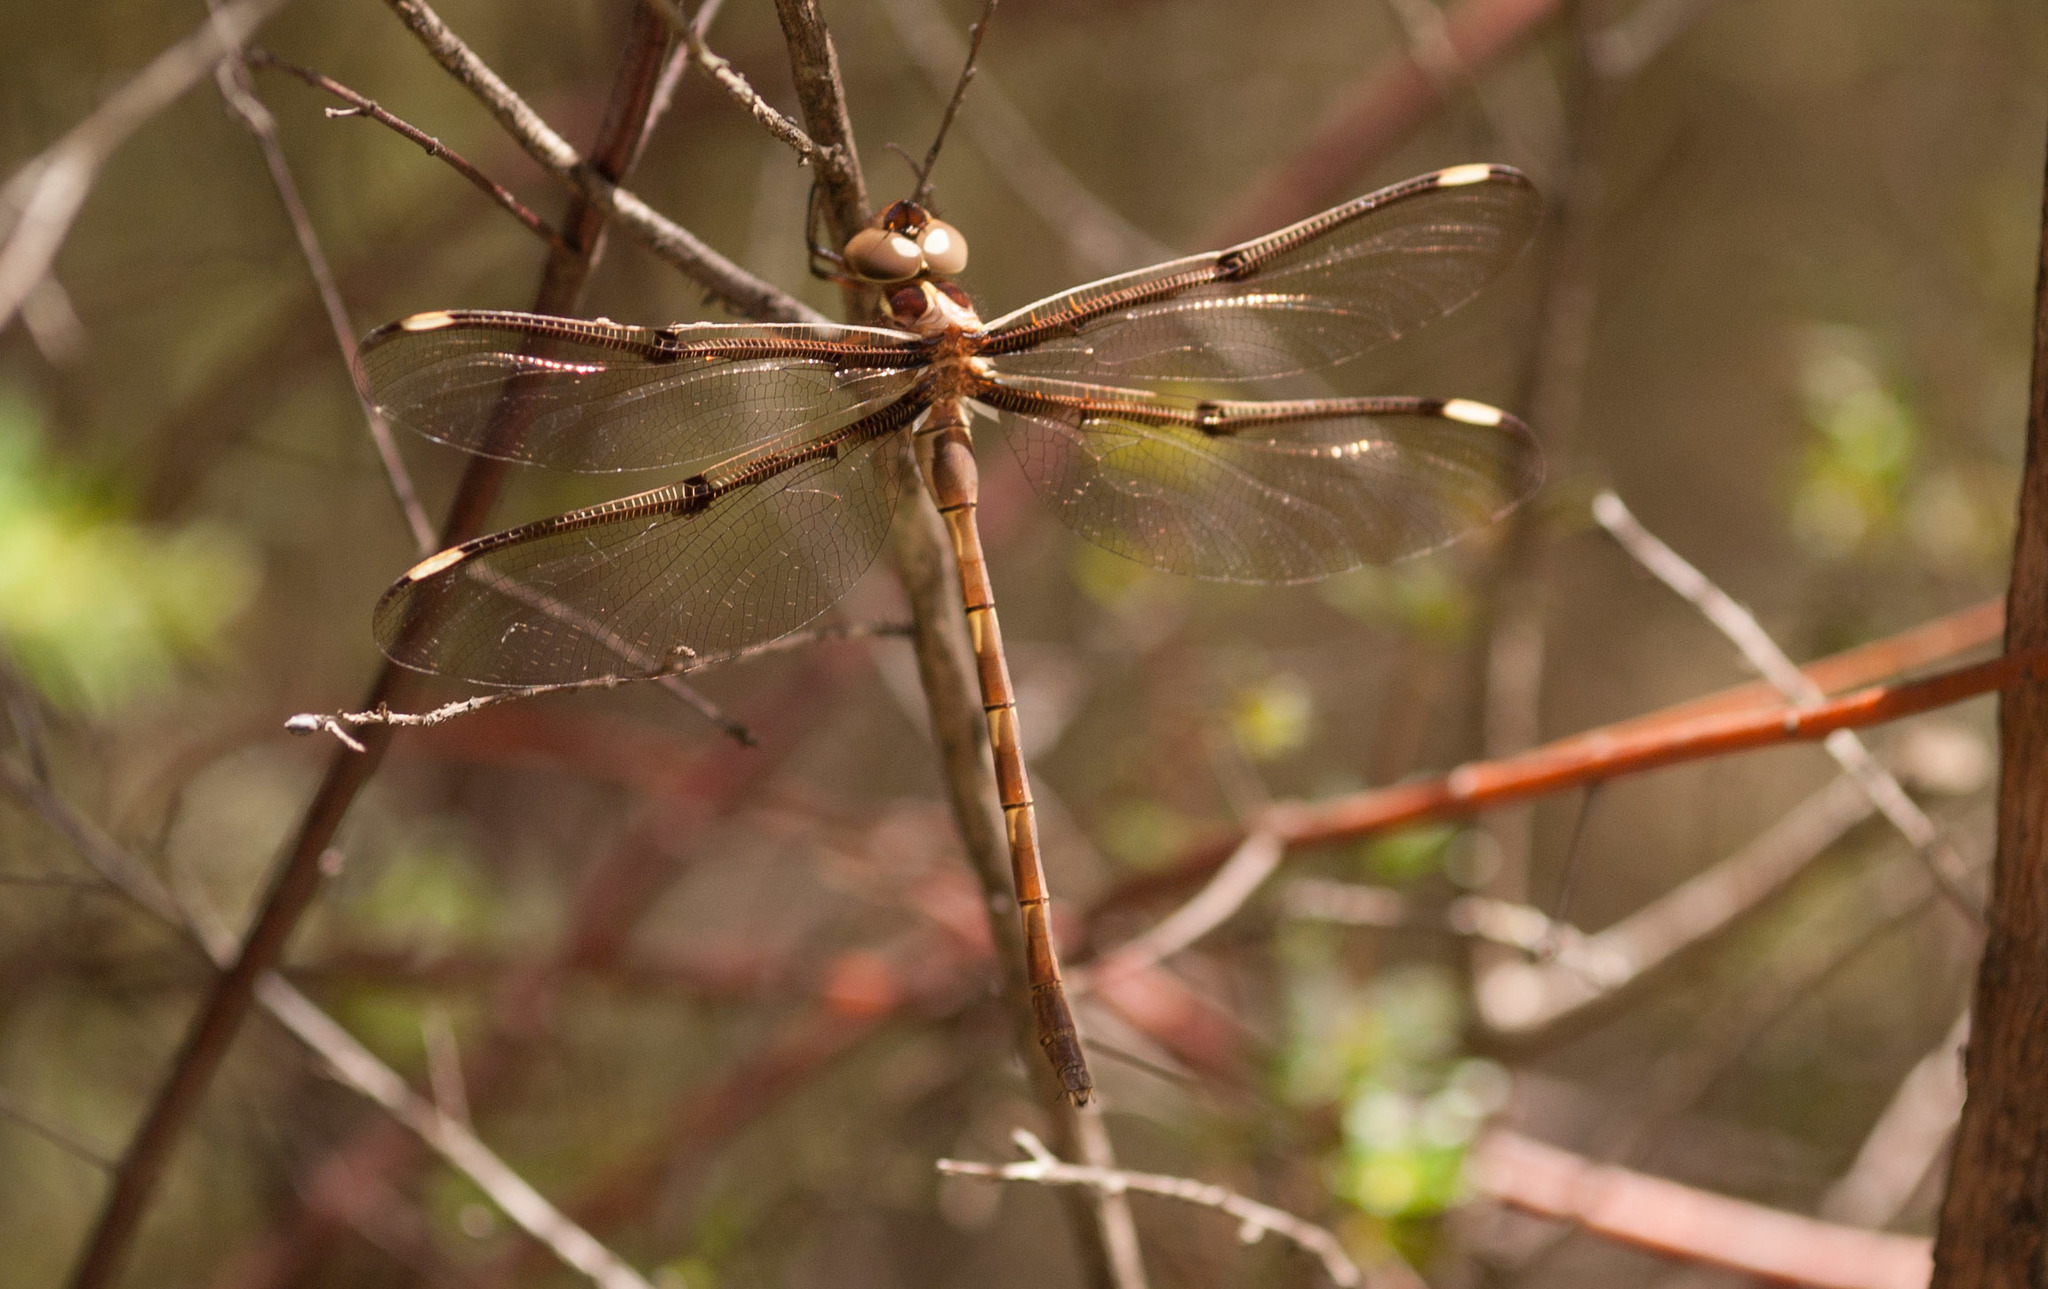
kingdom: Animalia
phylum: Arthropoda
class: Insecta
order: Odonata
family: Aeshnidae
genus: Telephlebia
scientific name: Telephlebia brevicauda
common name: Southern evening darner
